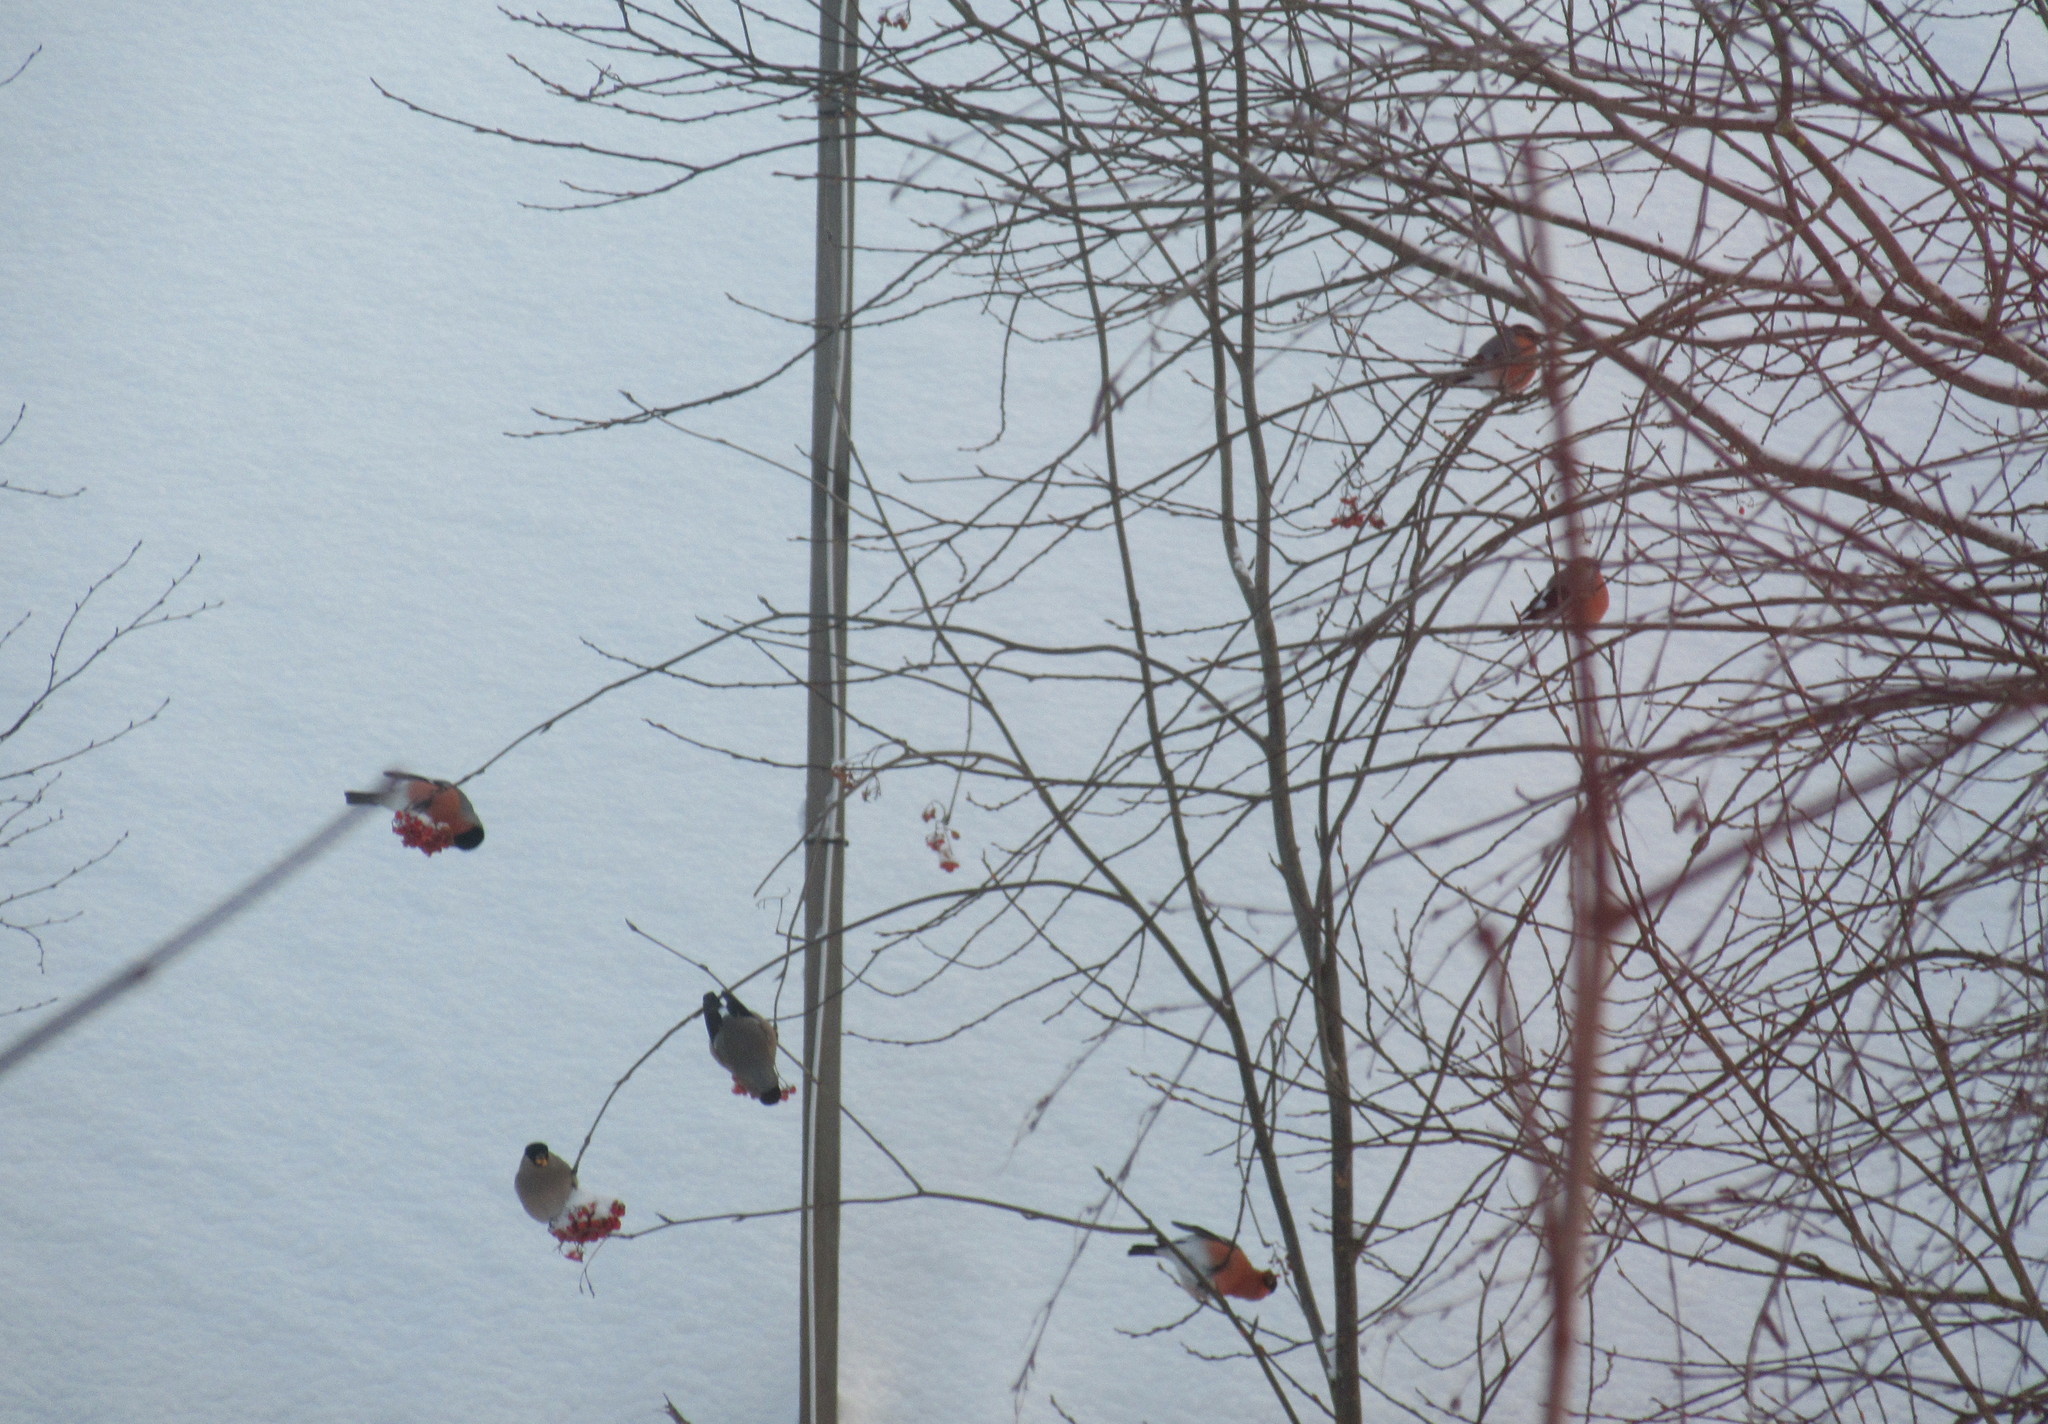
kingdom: Animalia
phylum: Chordata
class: Aves
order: Passeriformes
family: Fringillidae
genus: Pyrrhula
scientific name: Pyrrhula pyrrhula
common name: Eurasian bullfinch
